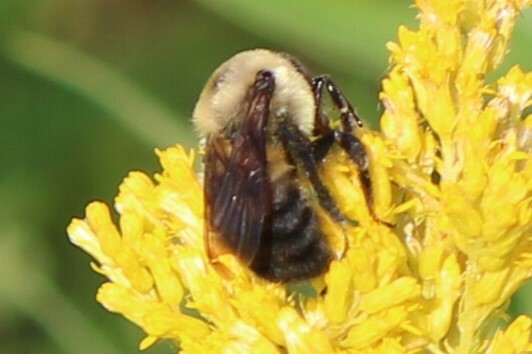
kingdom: Animalia
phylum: Arthropoda
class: Insecta
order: Hymenoptera
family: Apidae
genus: Bombus
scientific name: Bombus griseocollis
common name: Brown-belted bumble bee
